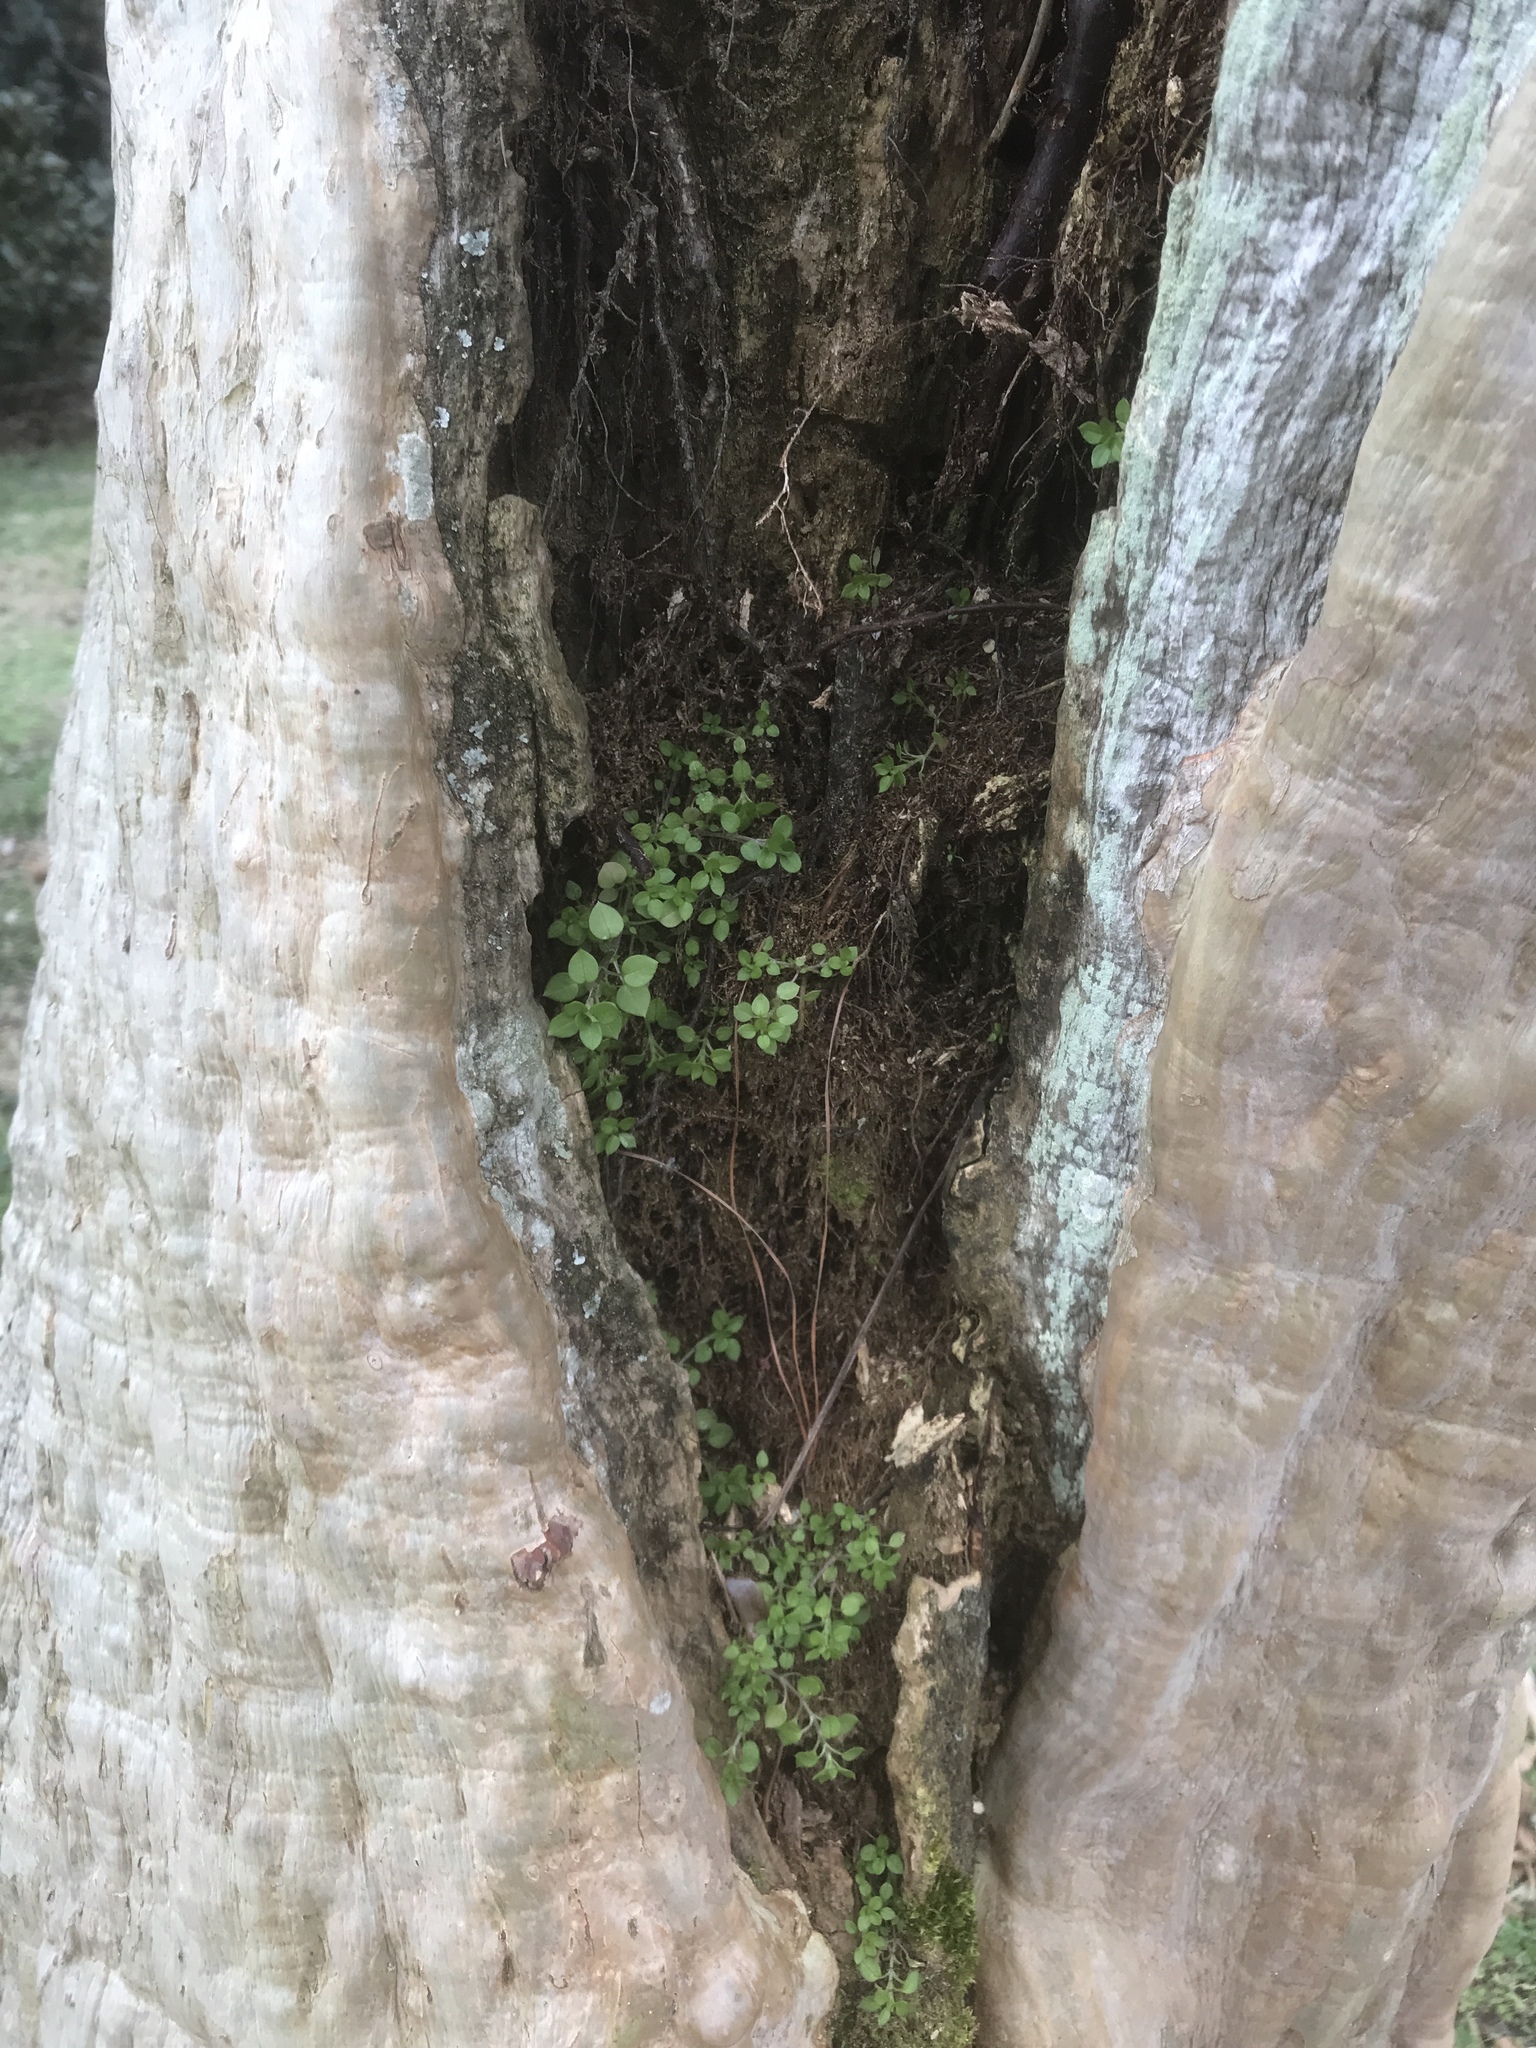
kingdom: Plantae
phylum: Tracheophyta
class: Magnoliopsida
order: Caryophyllales
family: Caryophyllaceae
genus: Stellaria
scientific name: Stellaria media
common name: Common chickweed
